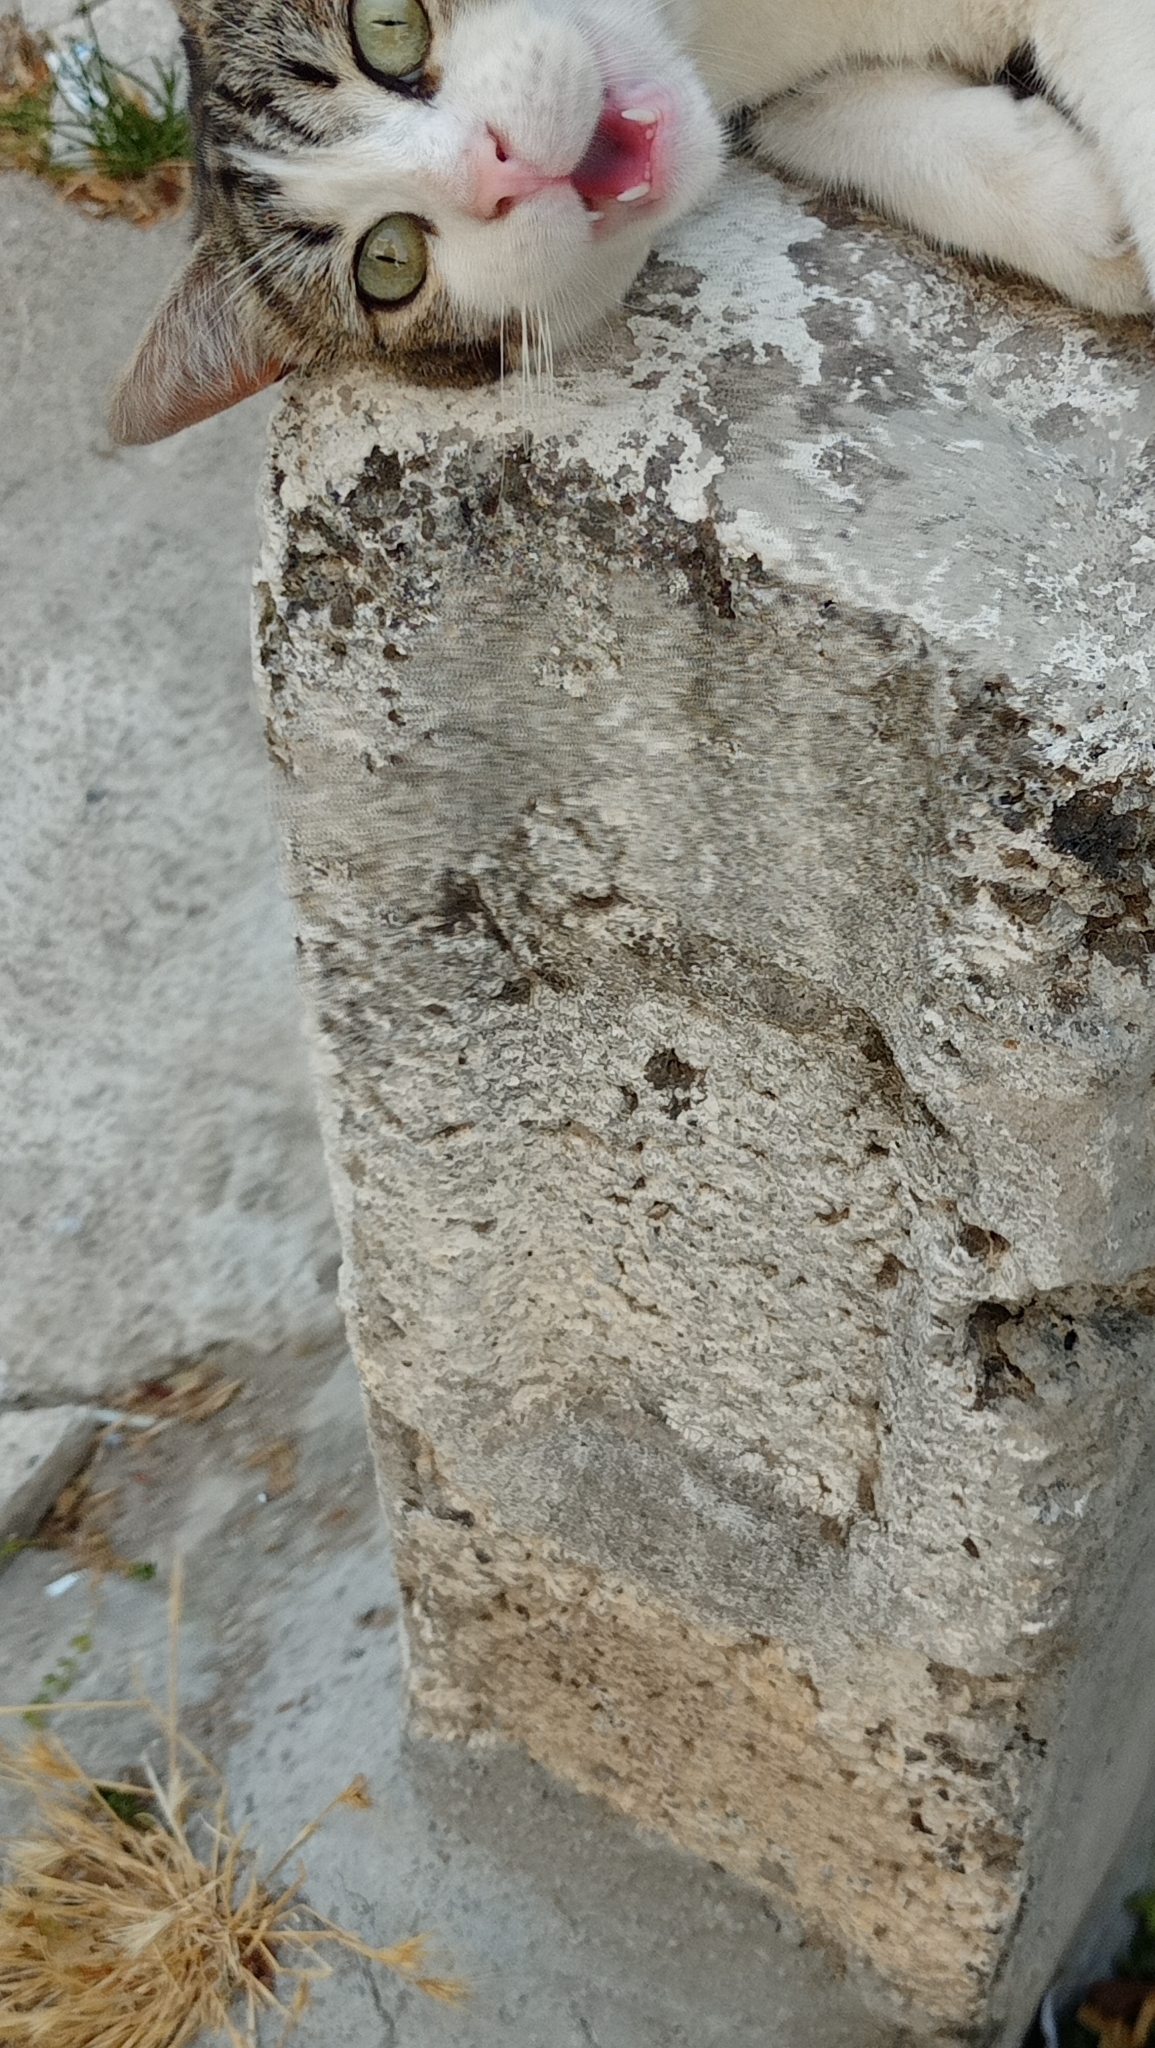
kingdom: Animalia
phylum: Chordata
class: Mammalia
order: Carnivora
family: Felidae
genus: Felis
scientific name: Felis catus
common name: Domestic cat
